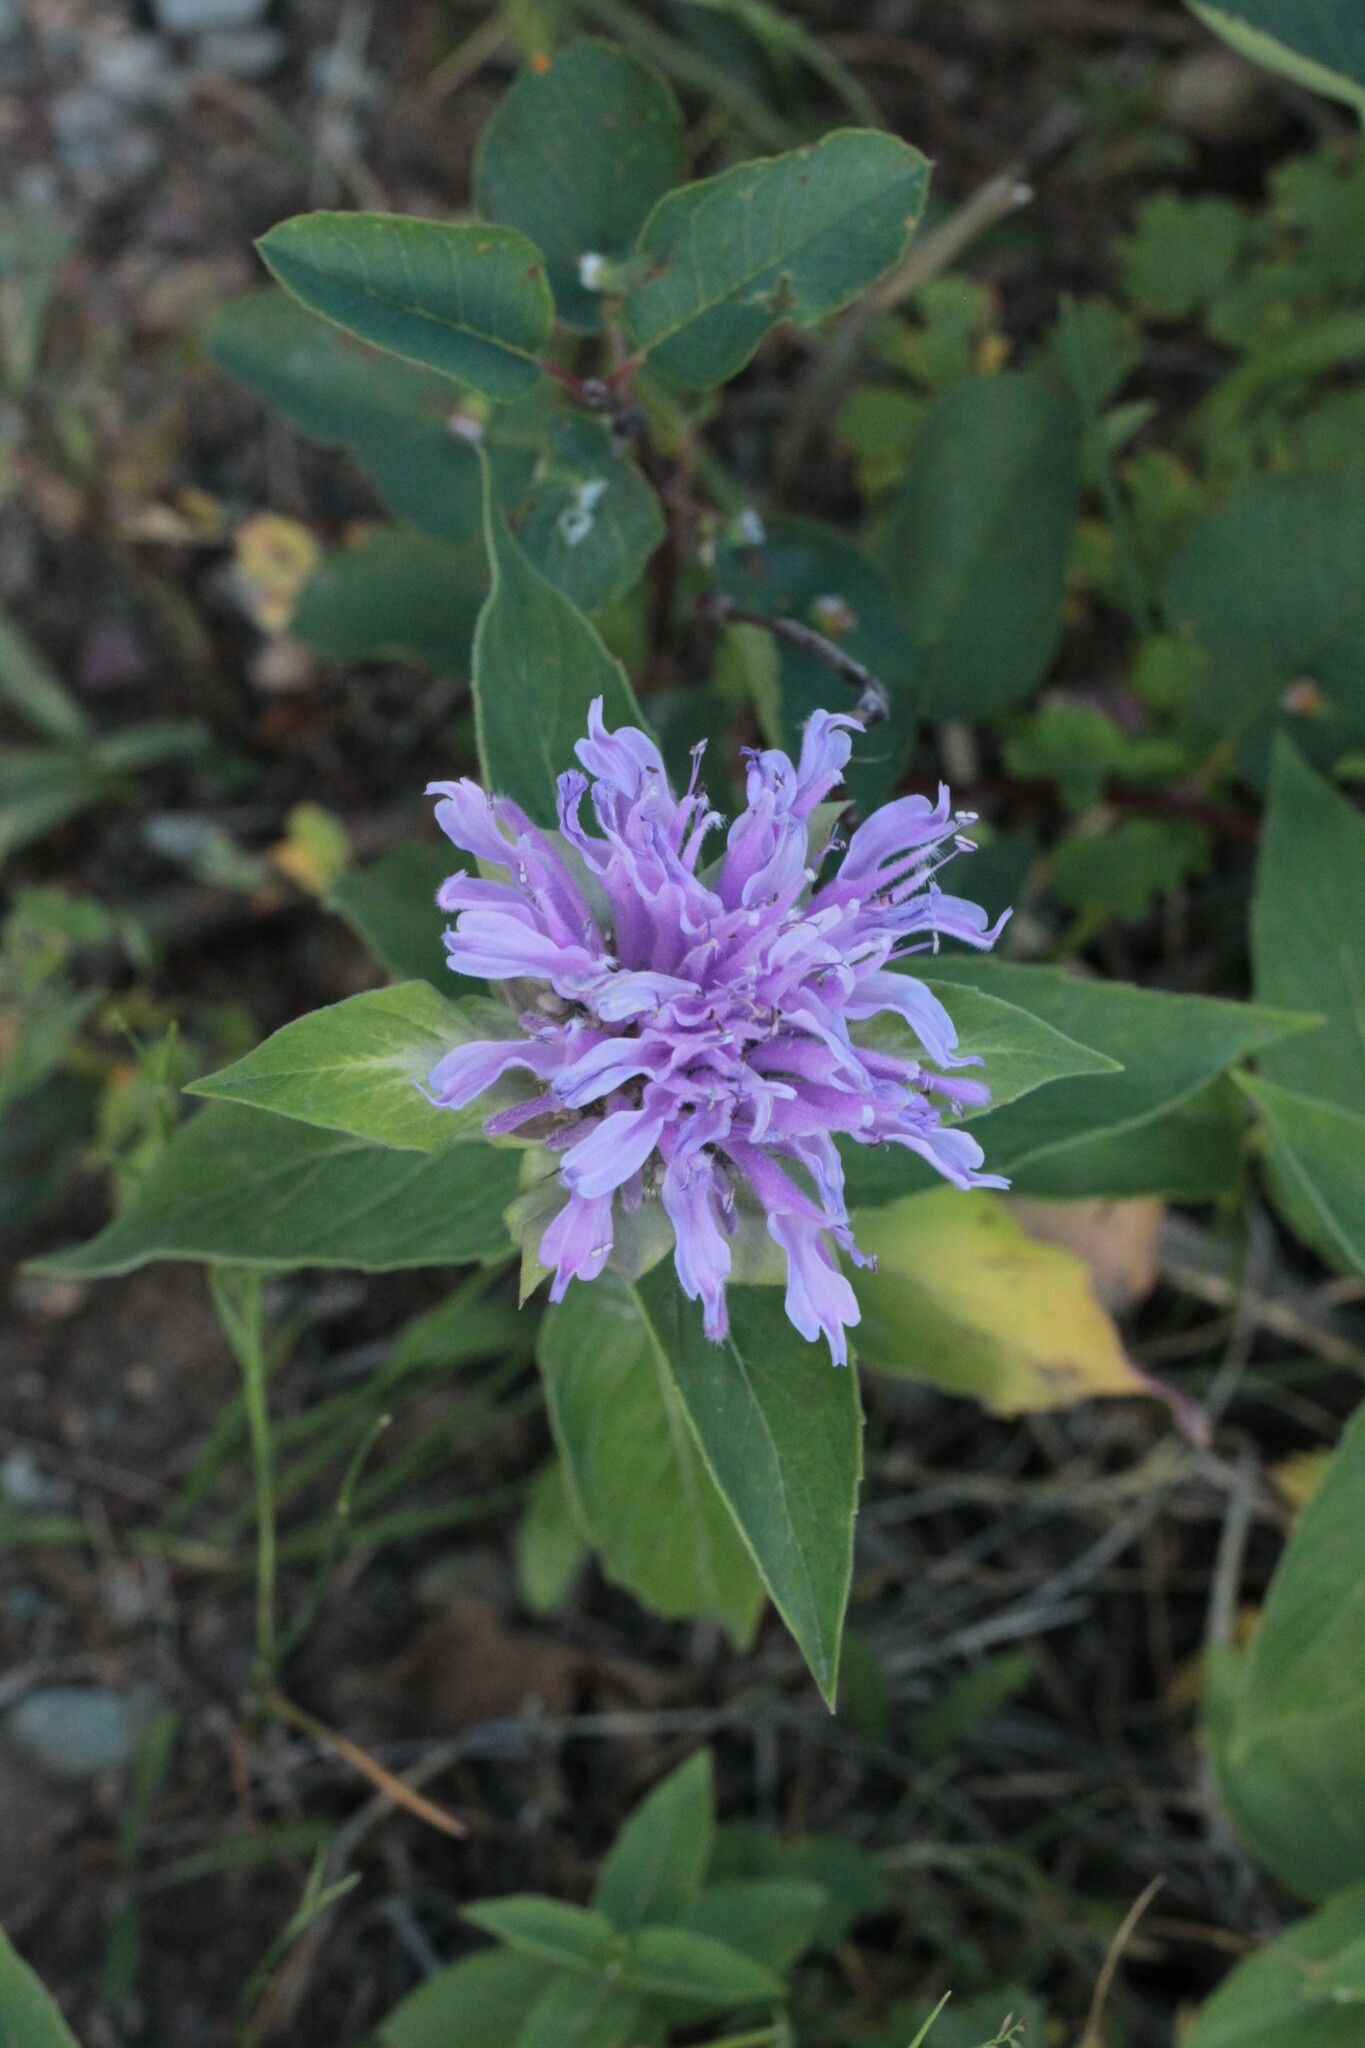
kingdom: Plantae
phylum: Tracheophyta
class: Magnoliopsida
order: Lamiales
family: Lamiaceae
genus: Monarda
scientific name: Monarda fistulosa
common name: Purple beebalm
